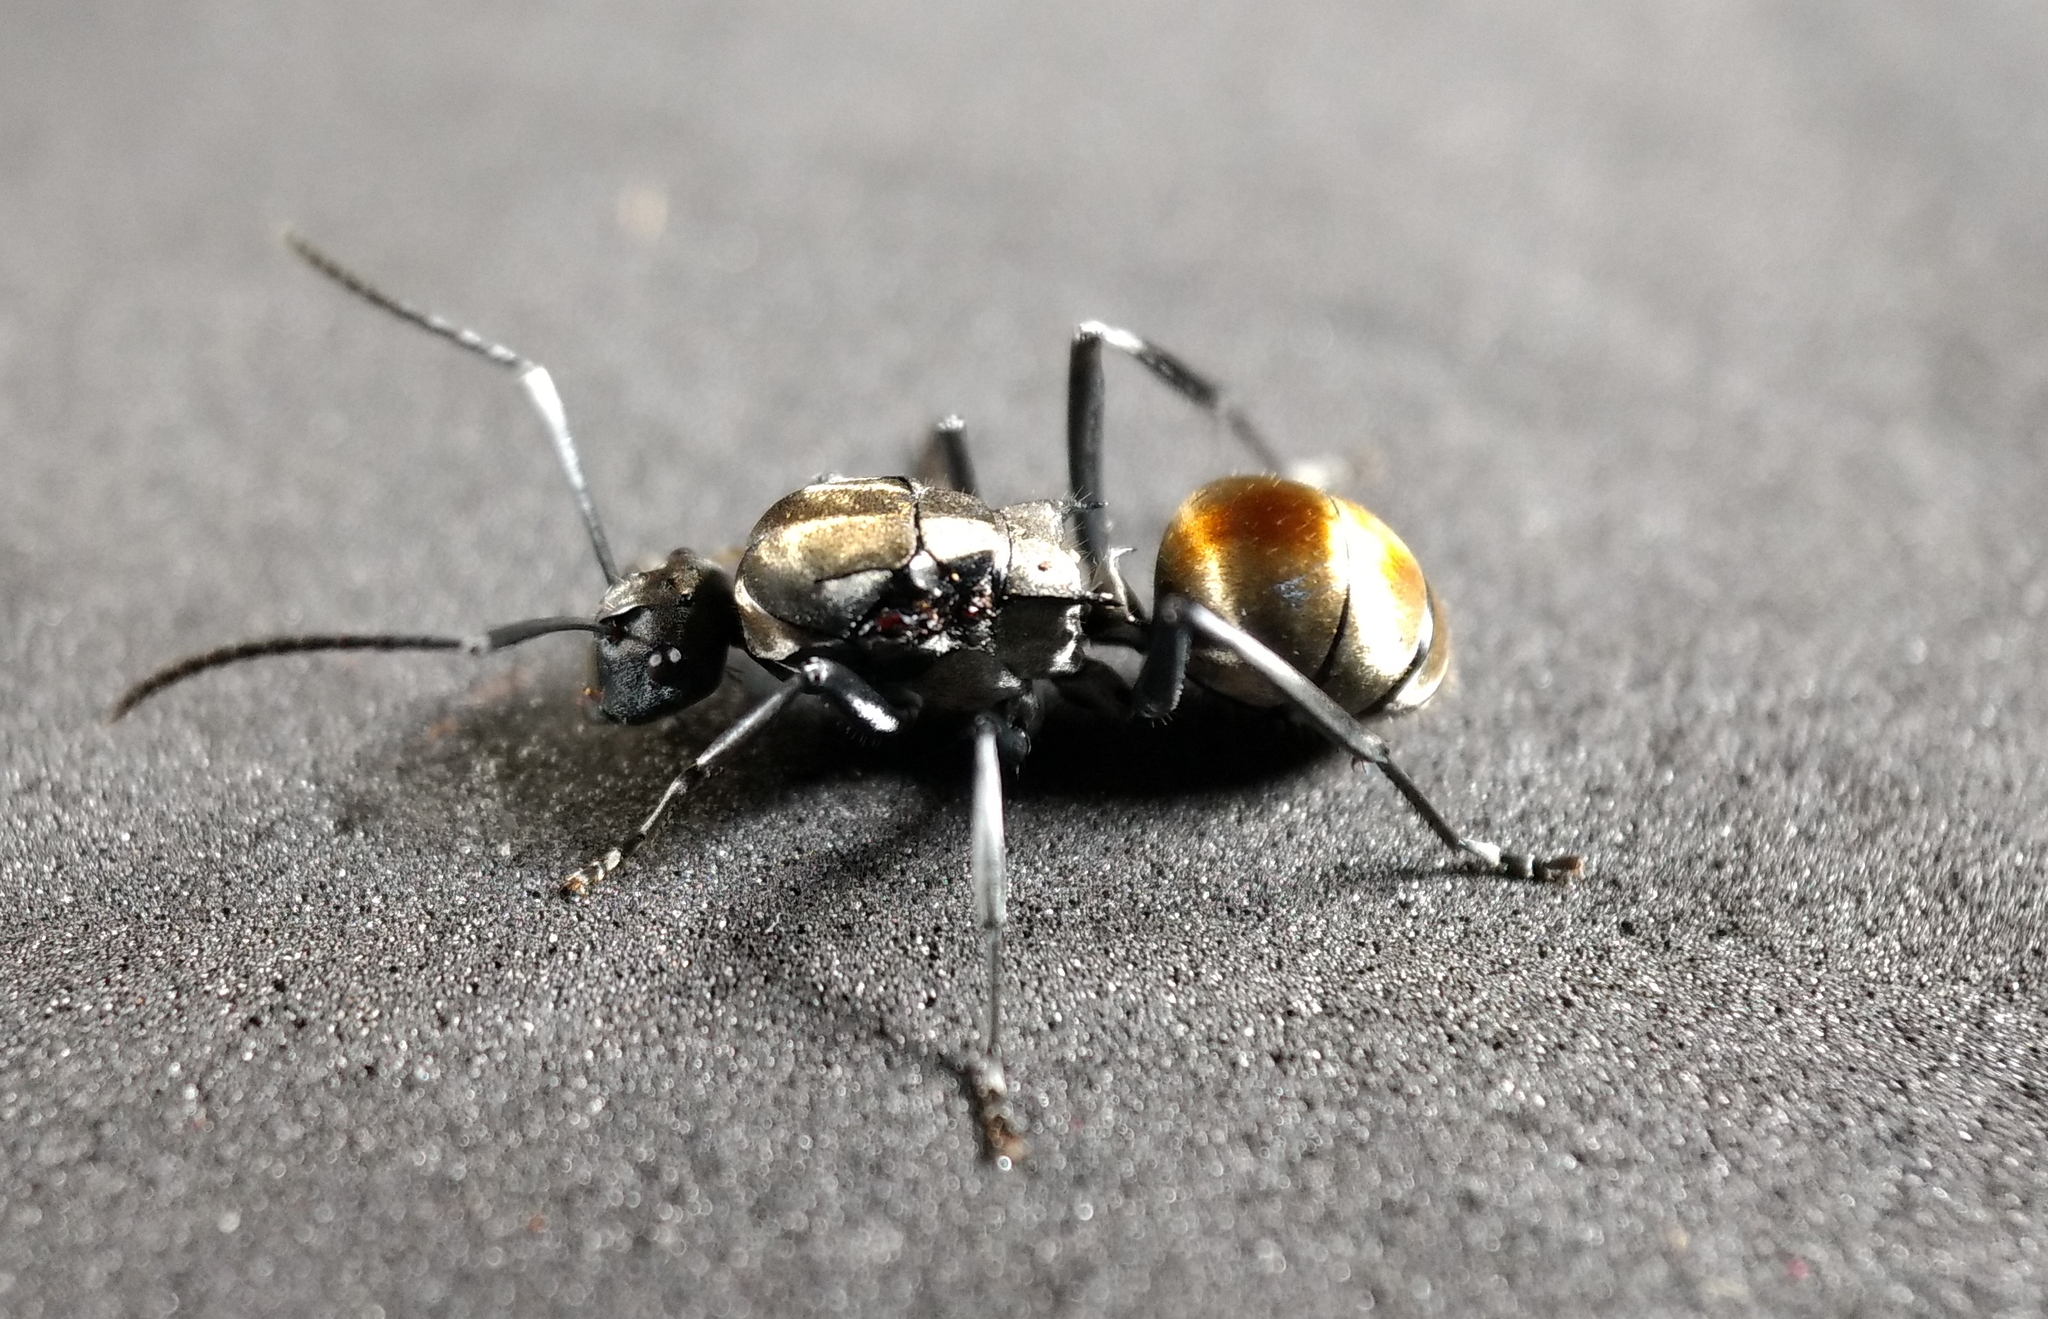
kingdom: Animalia
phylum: Arthropoda
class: Insecta
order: Hymenoptera
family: Formicidae
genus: Polyrhachis
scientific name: Polyrhachis ammon
